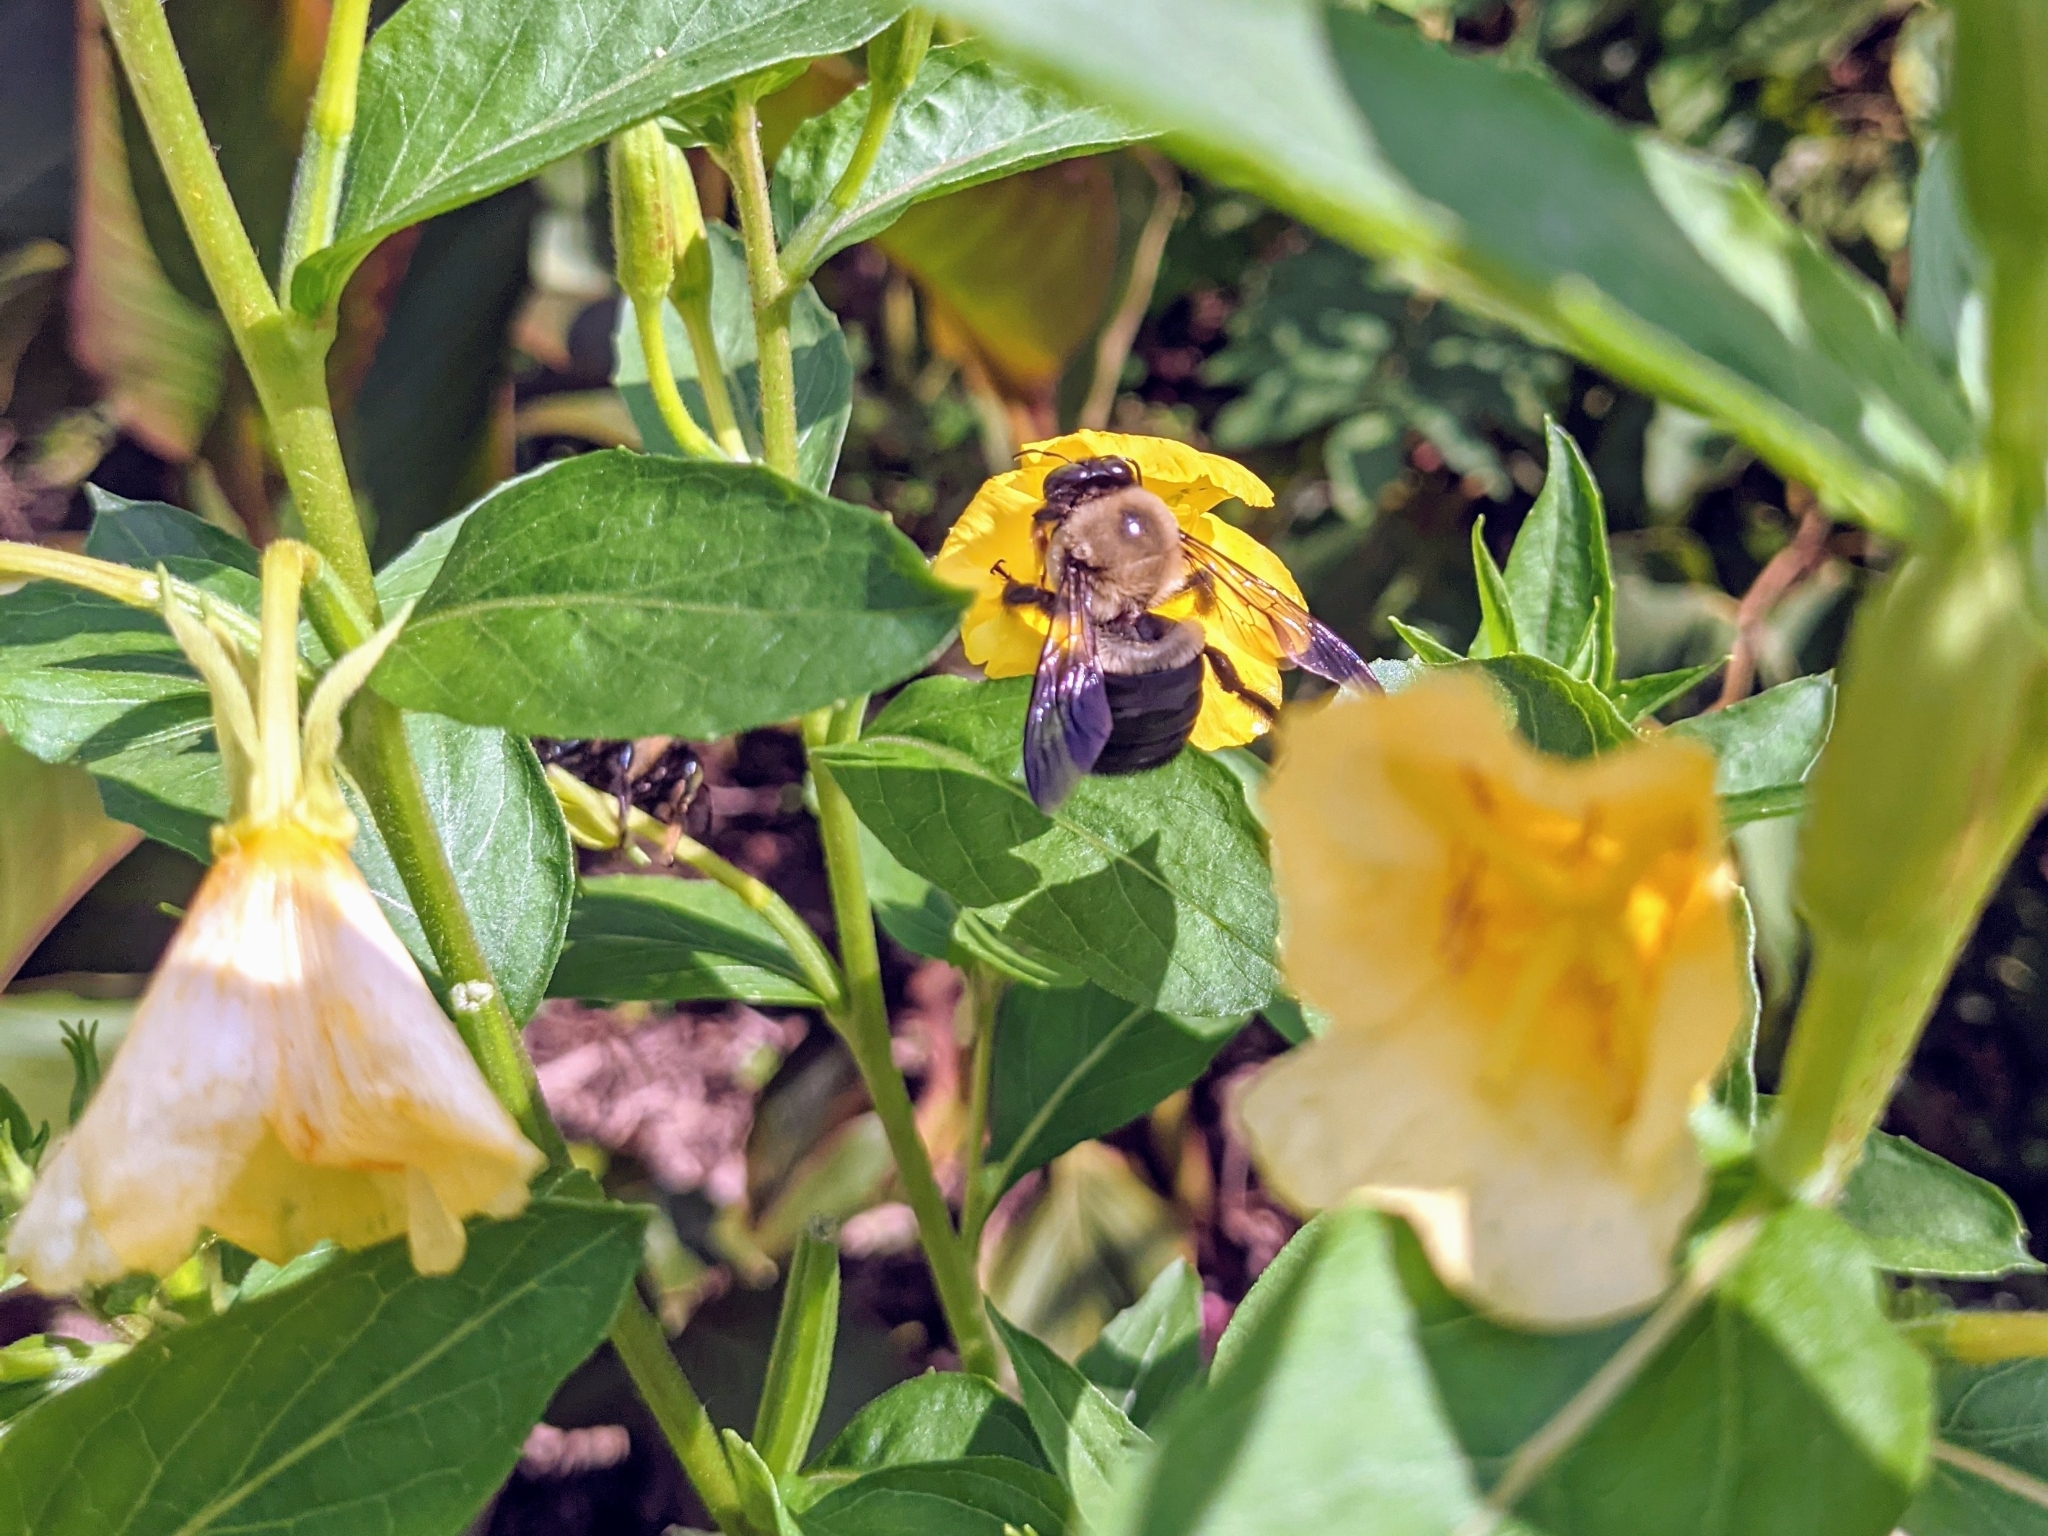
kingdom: Animalia
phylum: Arthropoda
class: Insecta
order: Hymenoptera
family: Apidae
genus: Xylocopa
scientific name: Xylocopa virginica
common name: Carpenter bee
